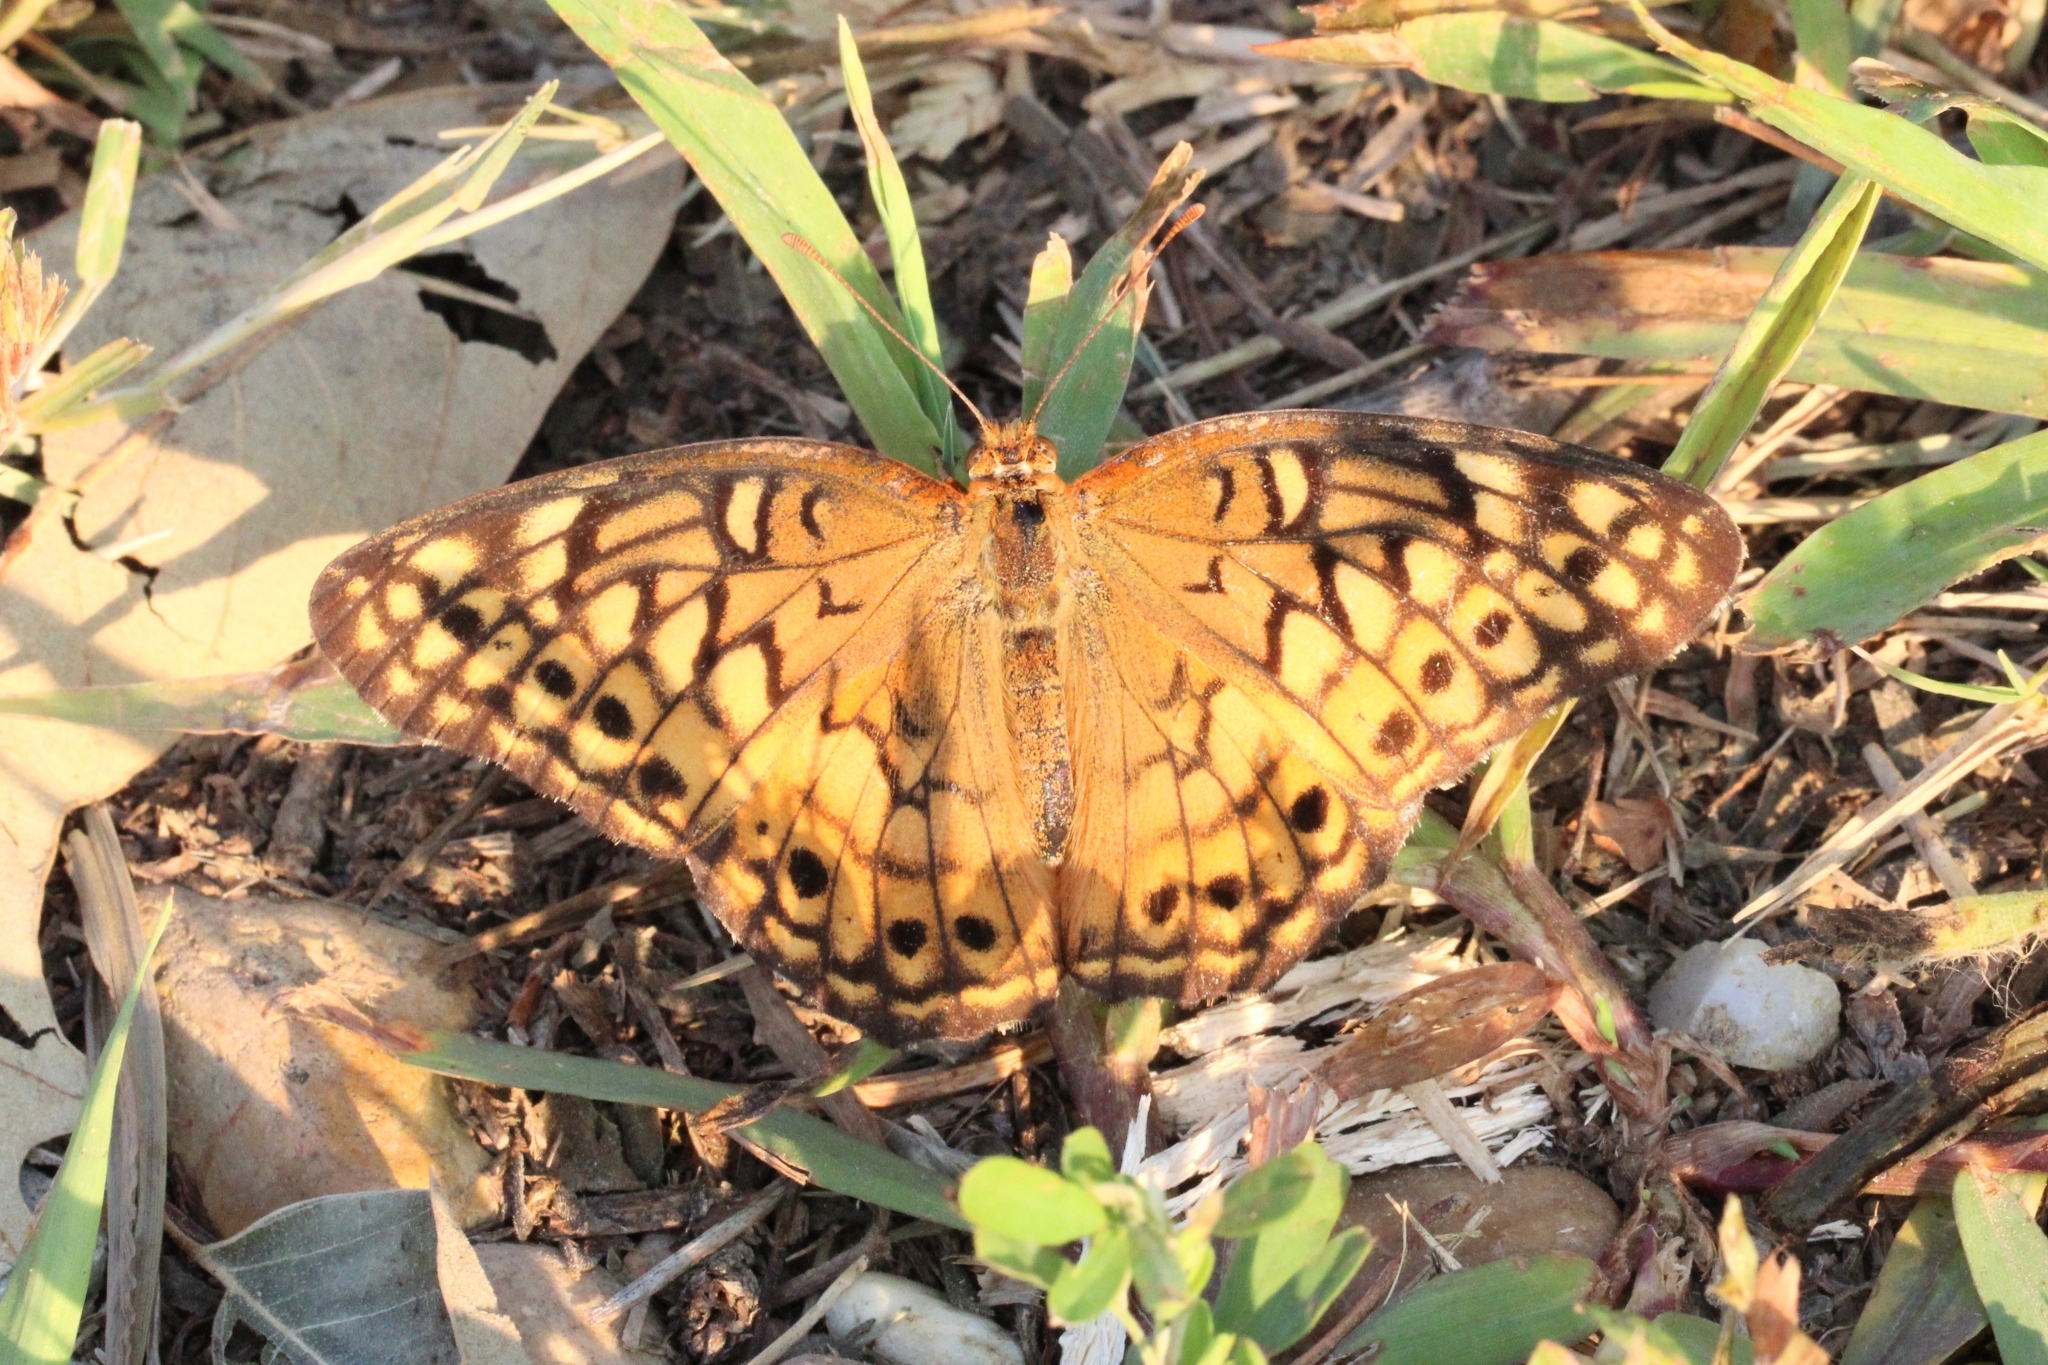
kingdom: Animalia
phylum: Arthropoda
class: Insecta
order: Lepidoptera
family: Nymphalidae
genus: Euptoieta
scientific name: Euptoieta claudia
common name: Variegated fritillary
